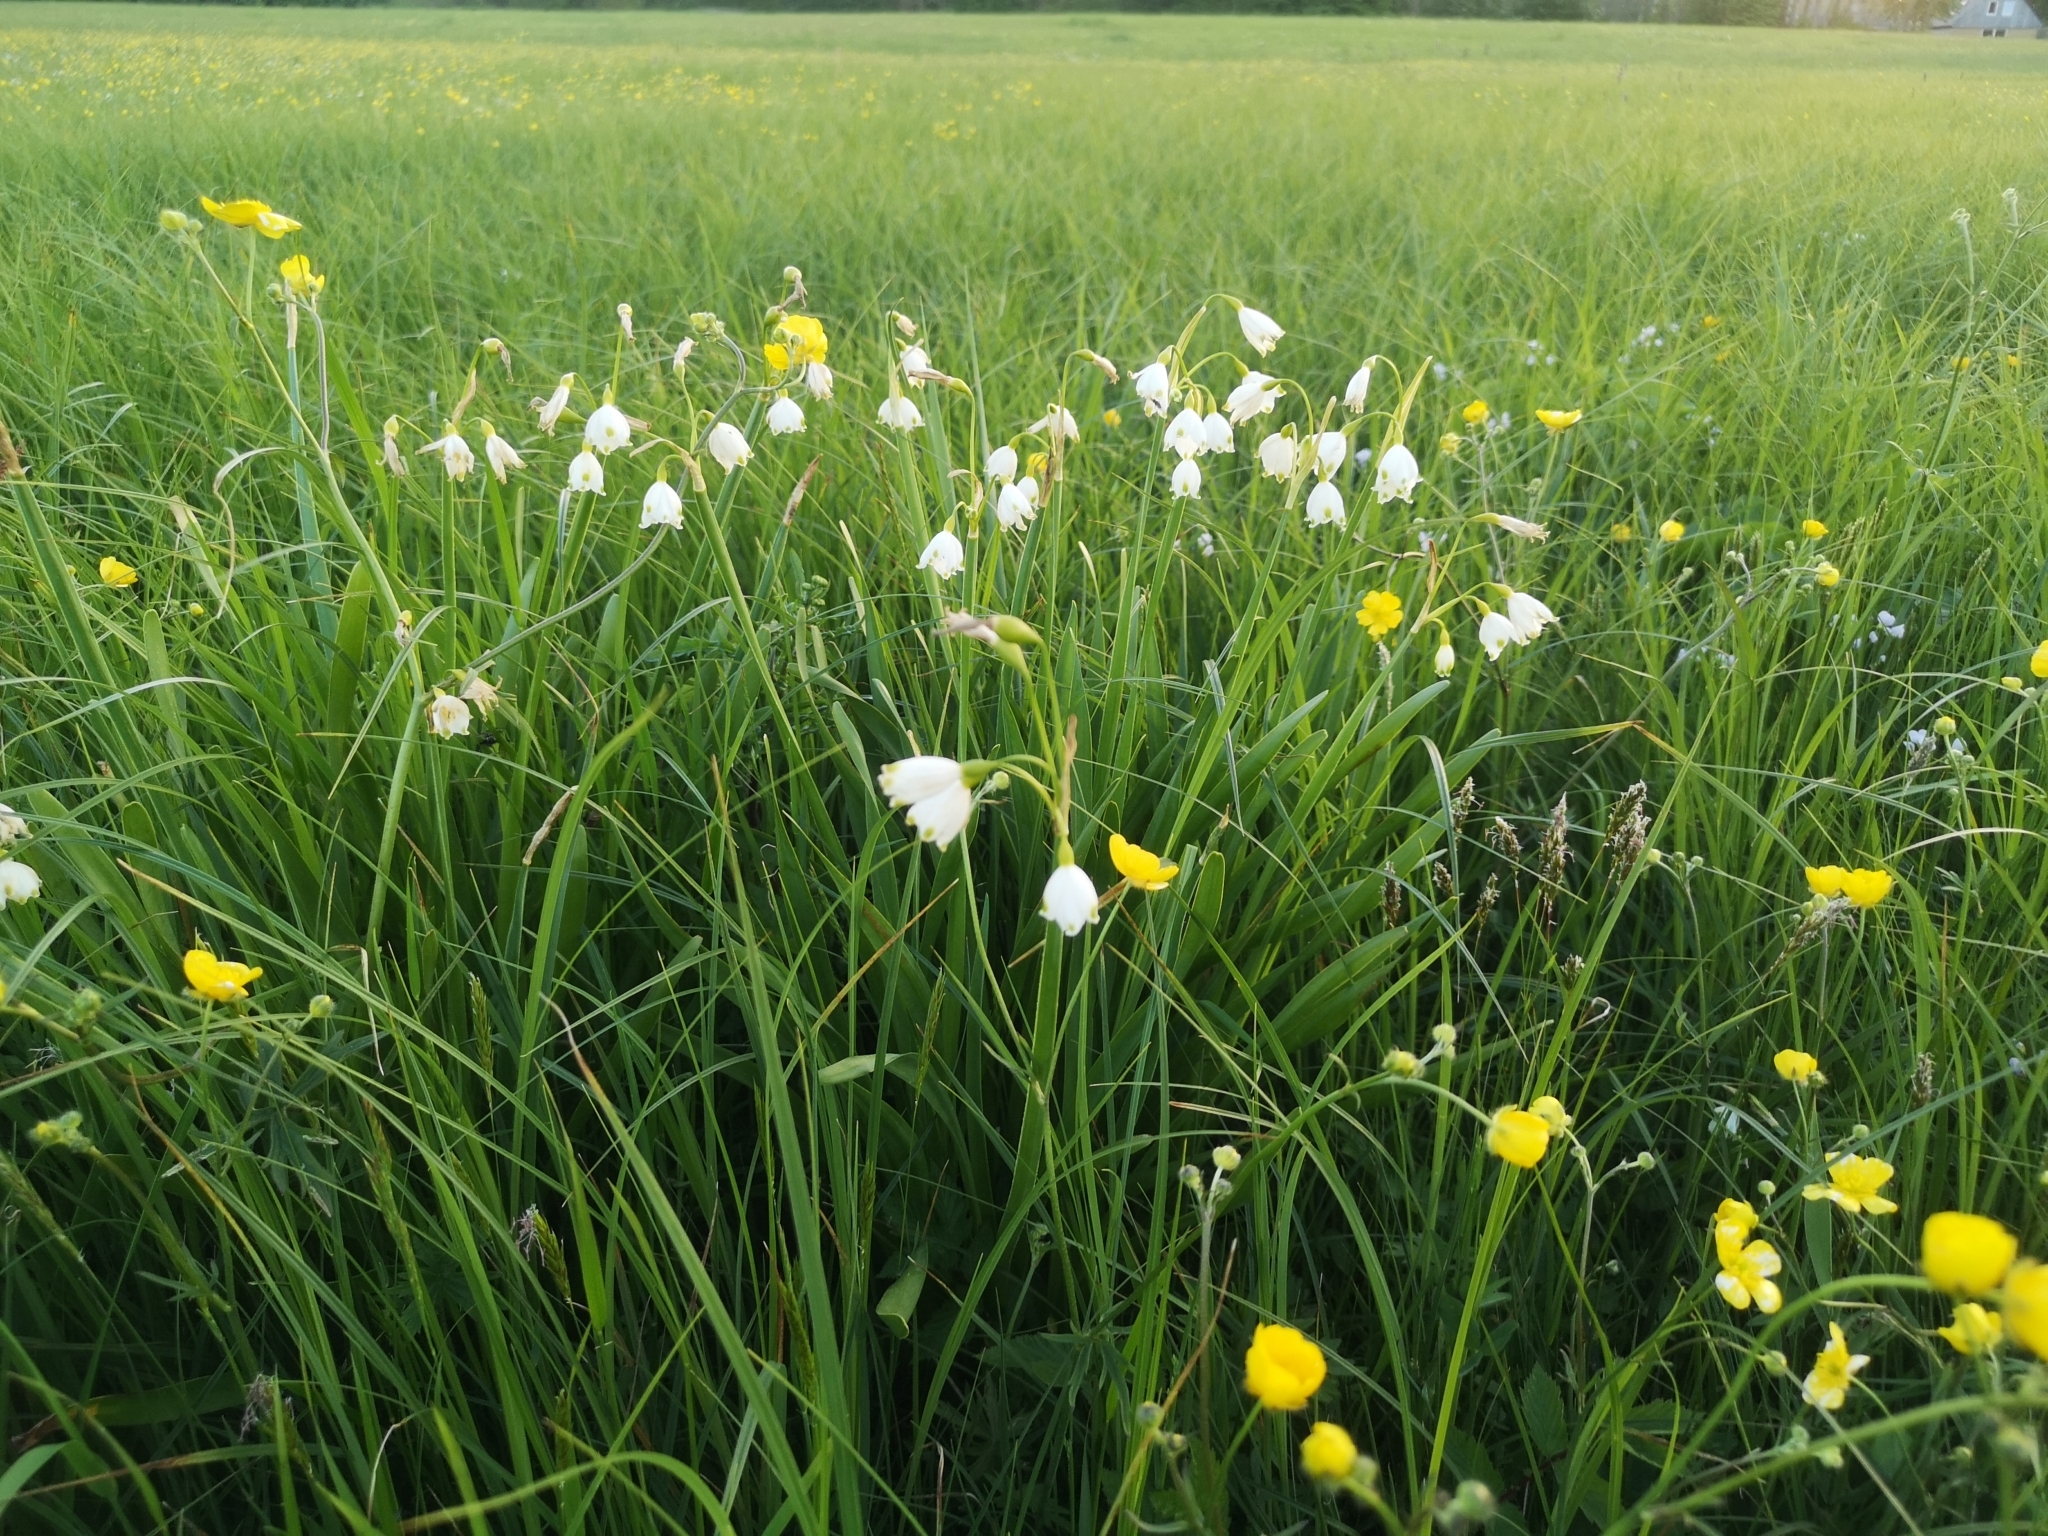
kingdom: Plantae
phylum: Tracheophyta
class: Liliopsida
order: Asparagales
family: Amaryllidaceae
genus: Leucojum
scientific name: Leucojum aestivum
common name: Summer snowflake
